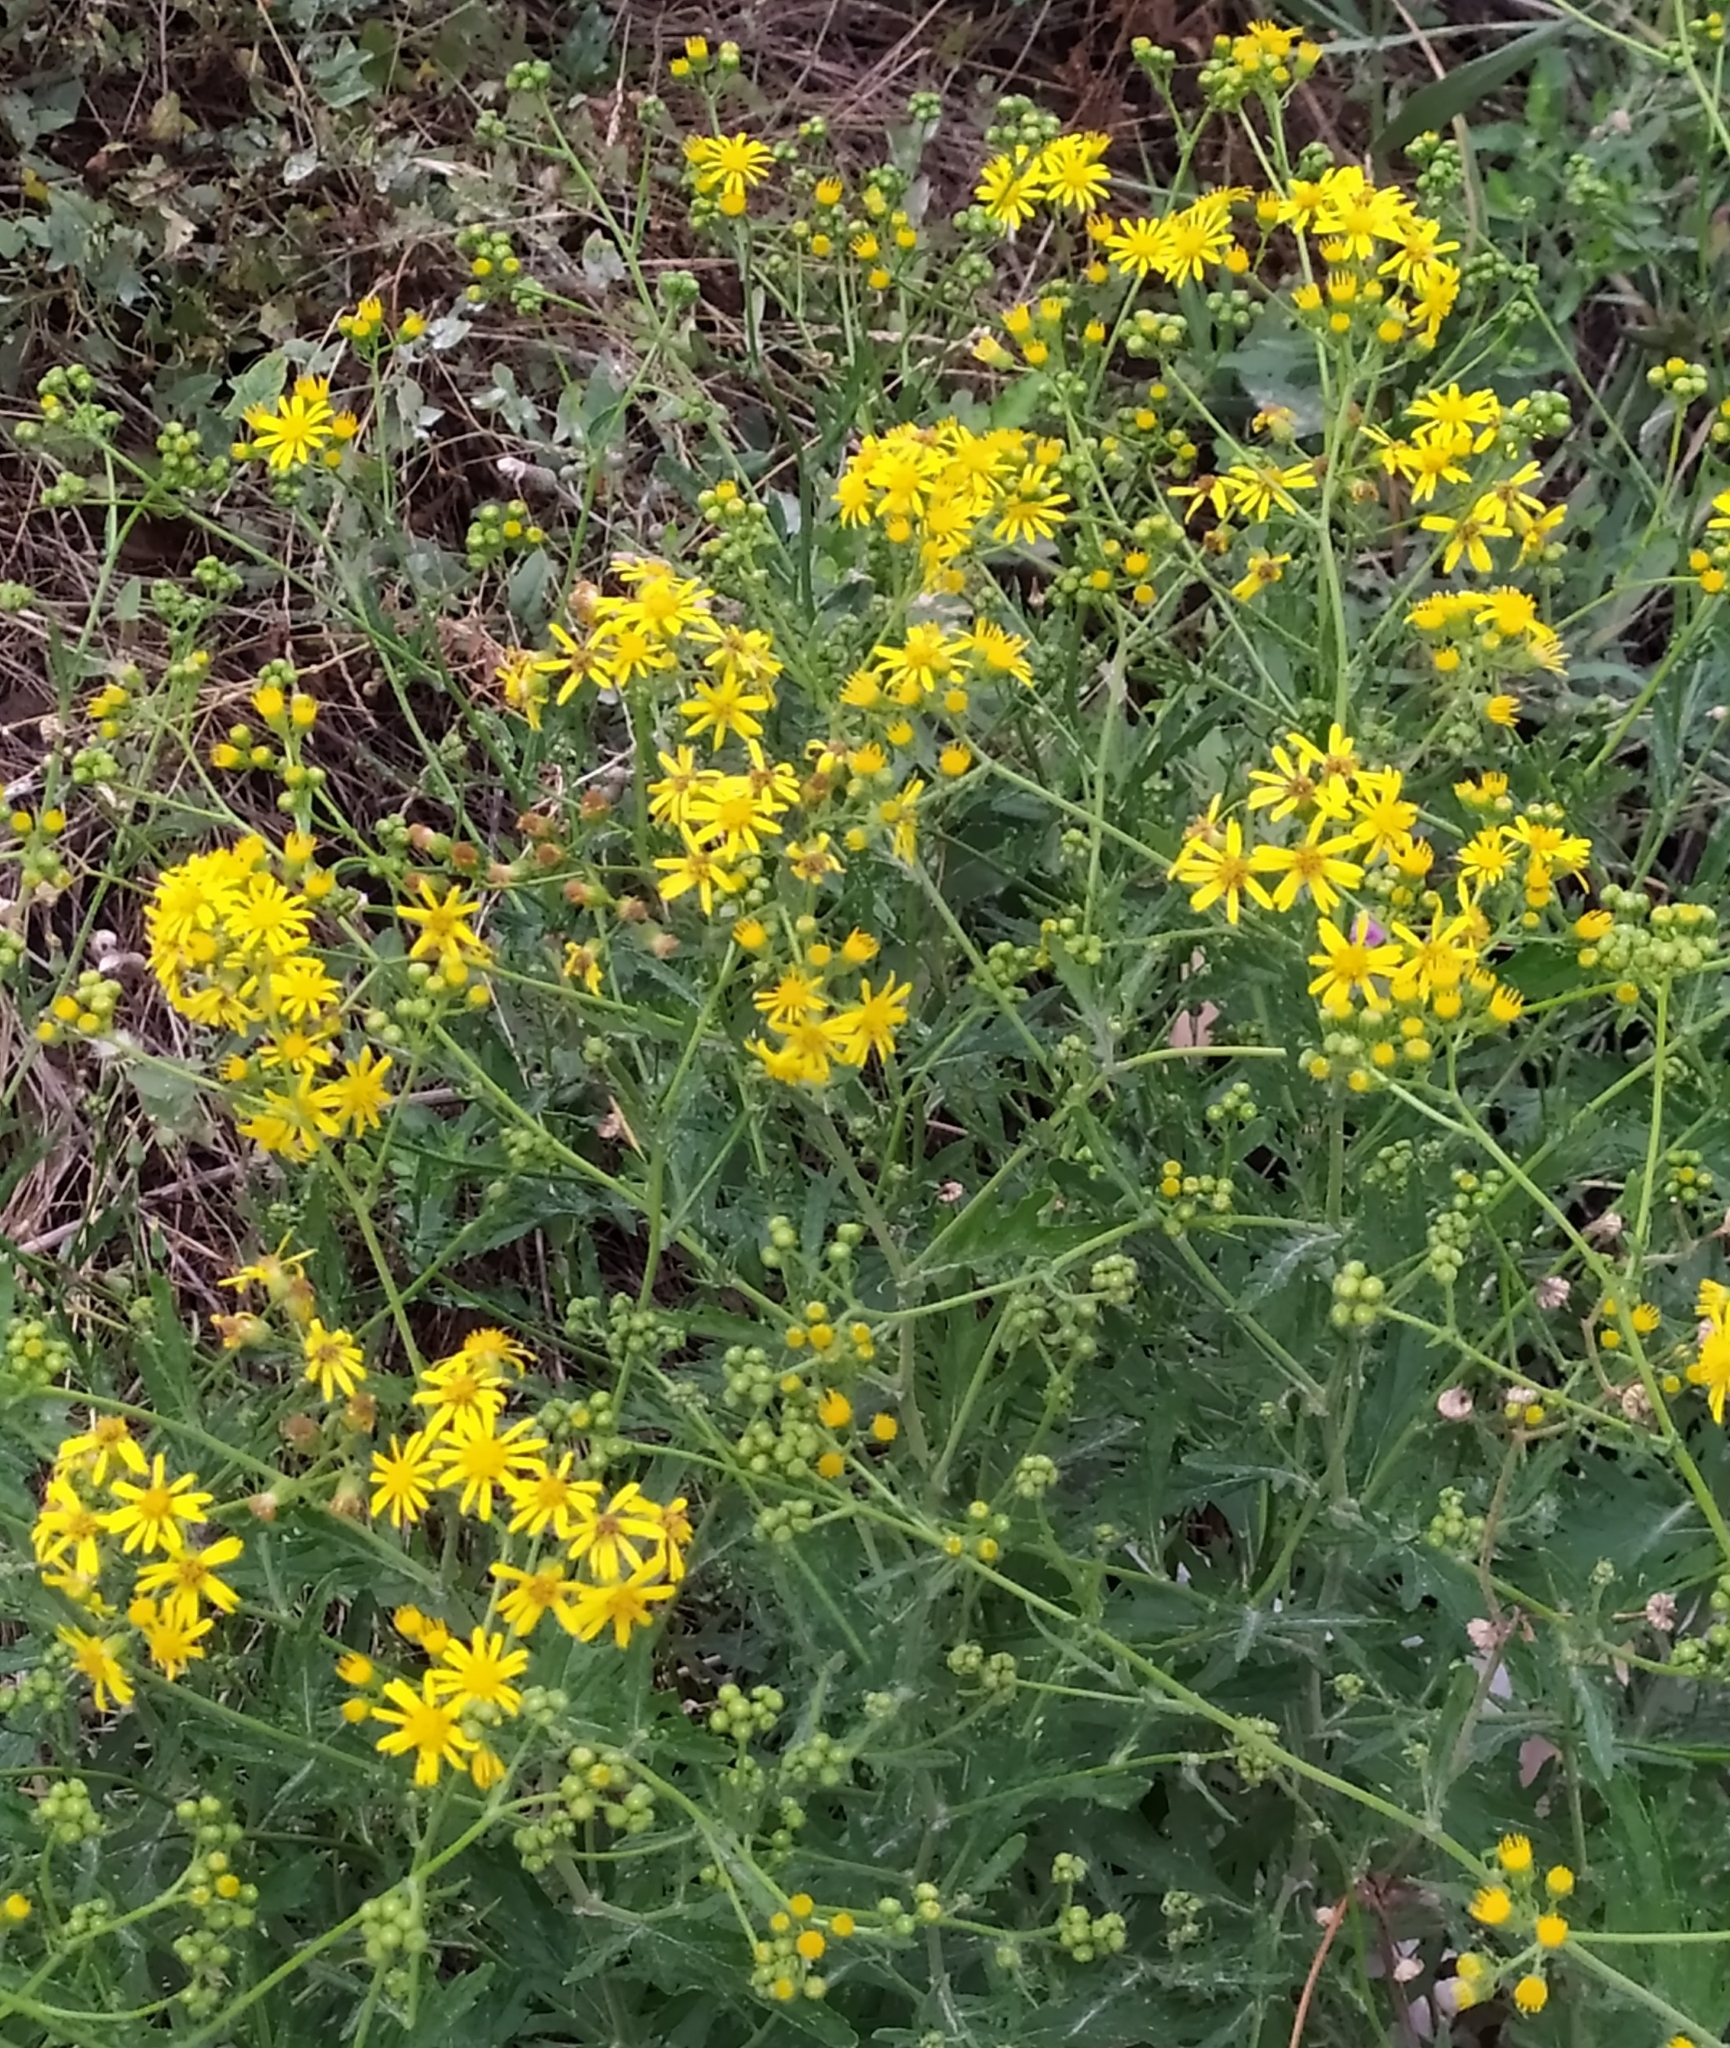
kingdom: Plantae
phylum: Tracheophyta
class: Magnoliopsida
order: Asterales
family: Asteraceae
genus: Jacobaea
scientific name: Jacobaea erucifolia
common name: Hoary ragwort
